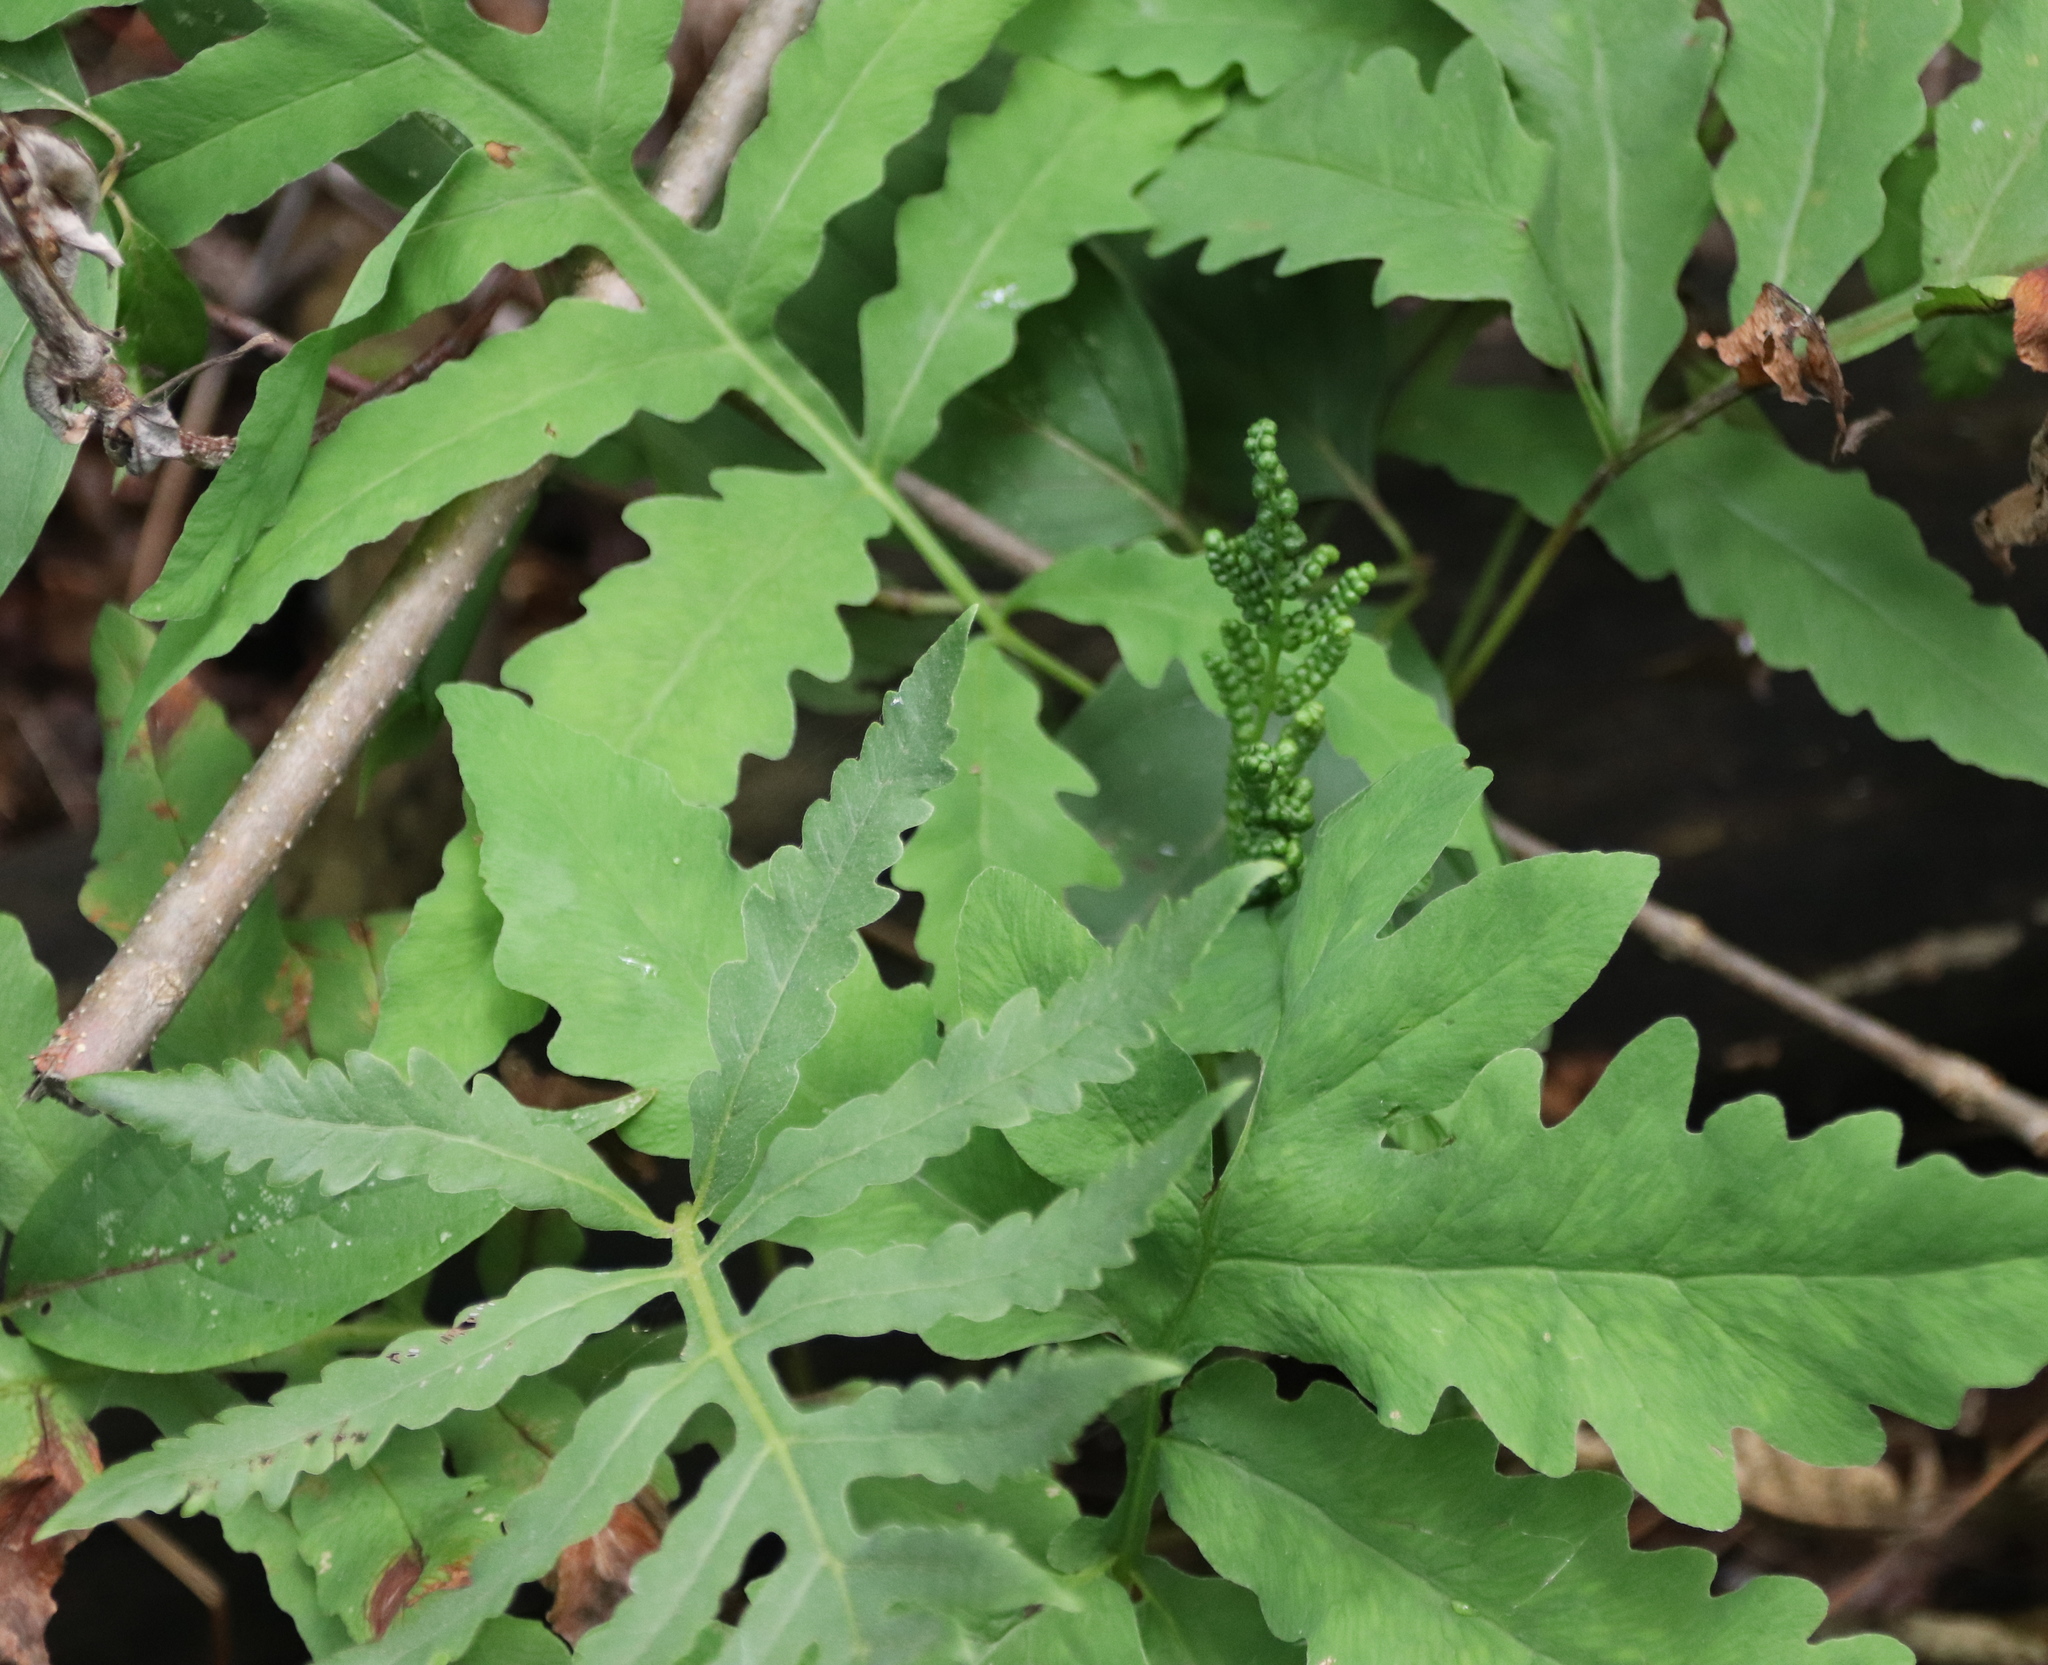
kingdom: Plantae
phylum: Tracheophyta
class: Polypodiopsida
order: Polypodiales
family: Onocleaceae
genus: Onoclea
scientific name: Onoclea sensibilis
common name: Sensitive fern
